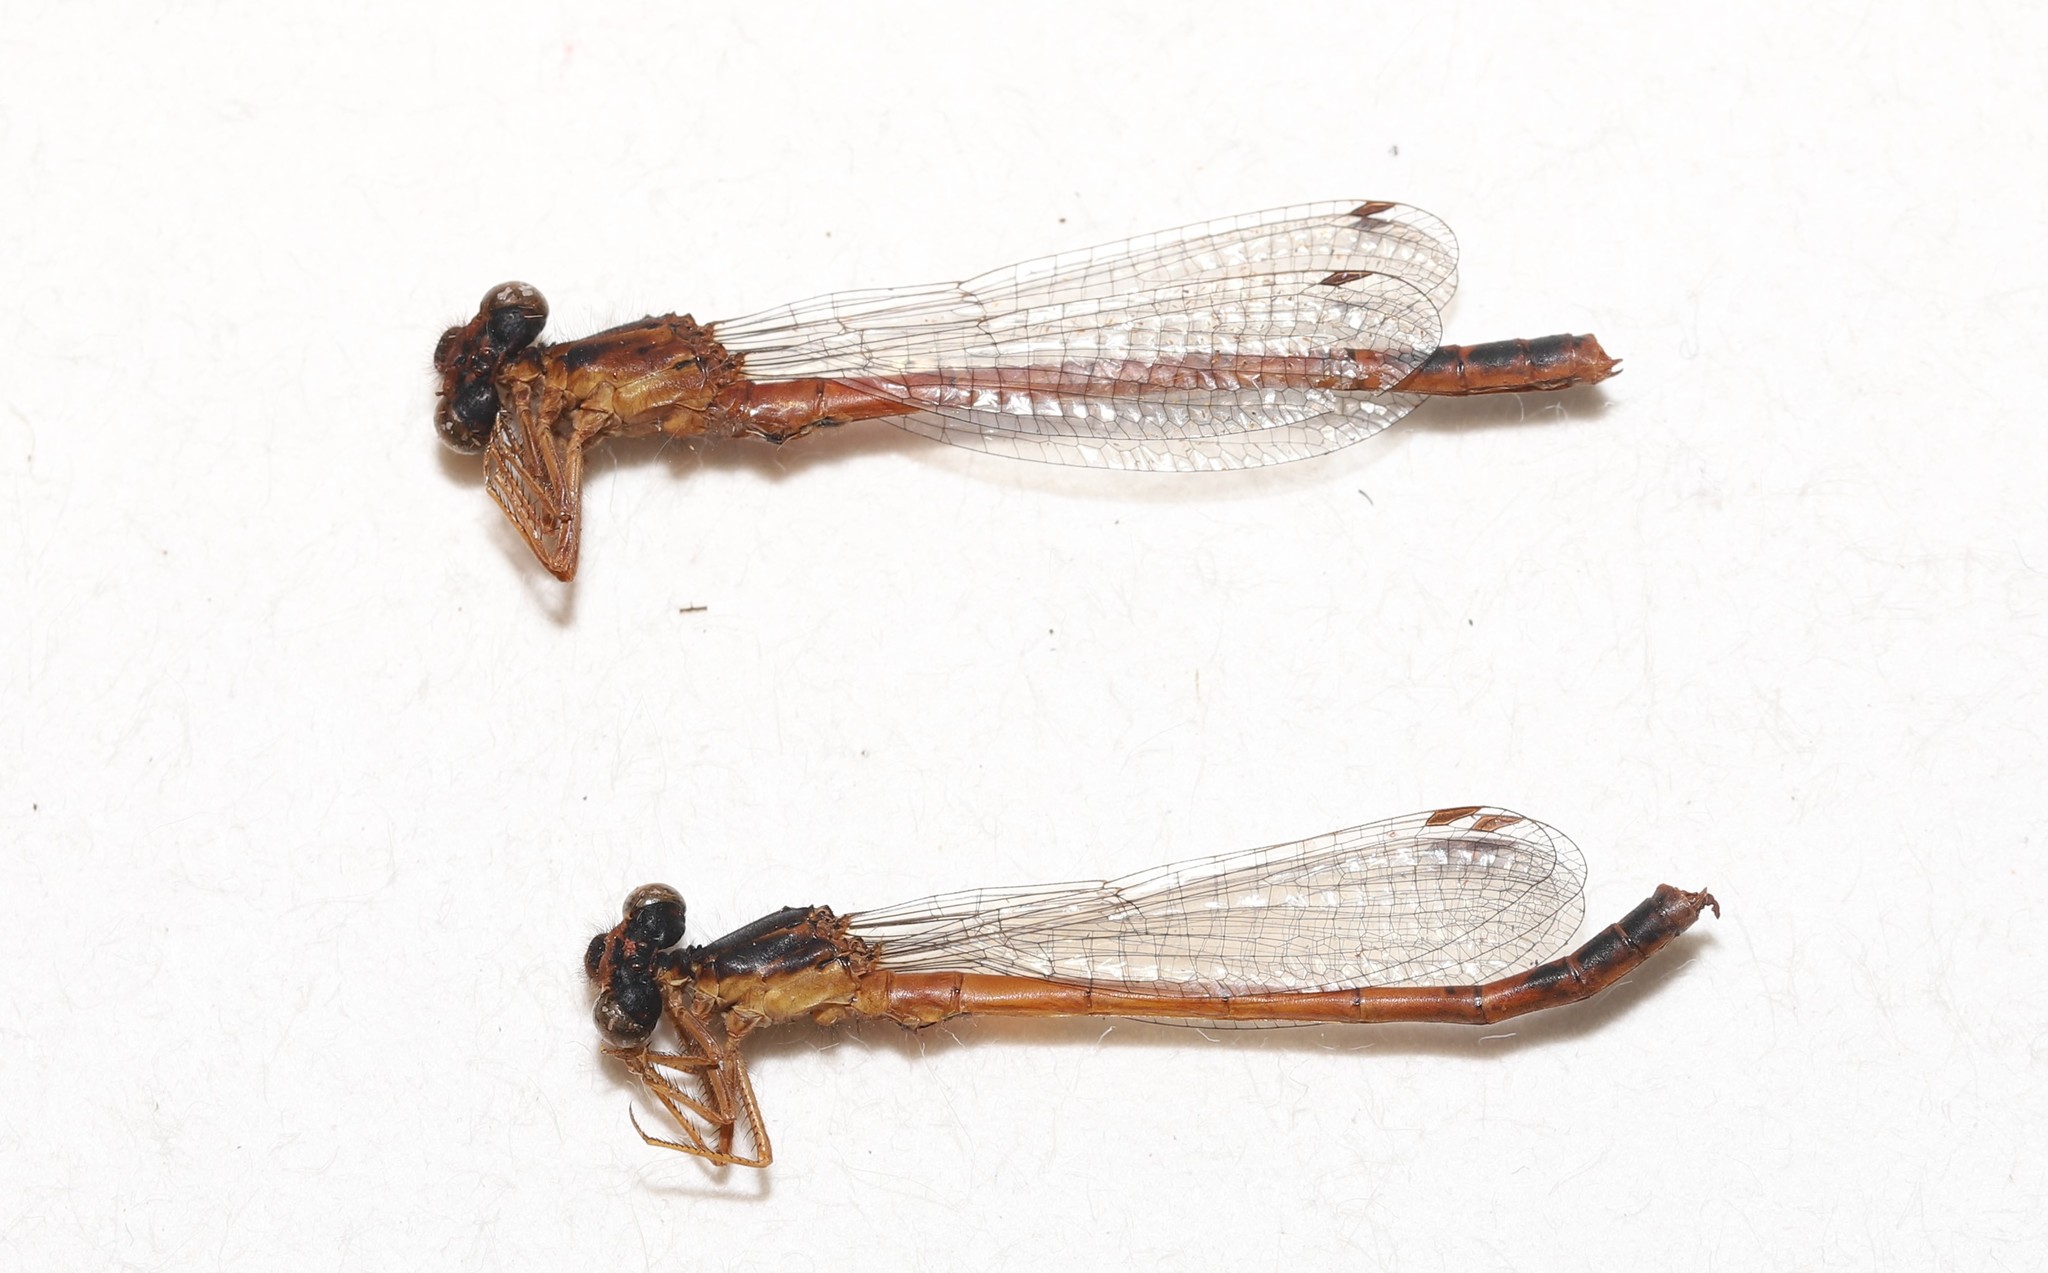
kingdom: Animalia
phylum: Arthropoda
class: Insecta
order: Odonata
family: Coenagrionidae
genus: Amphiagrion
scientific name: Amphiagrion abbreviatum
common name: Western red damsel
